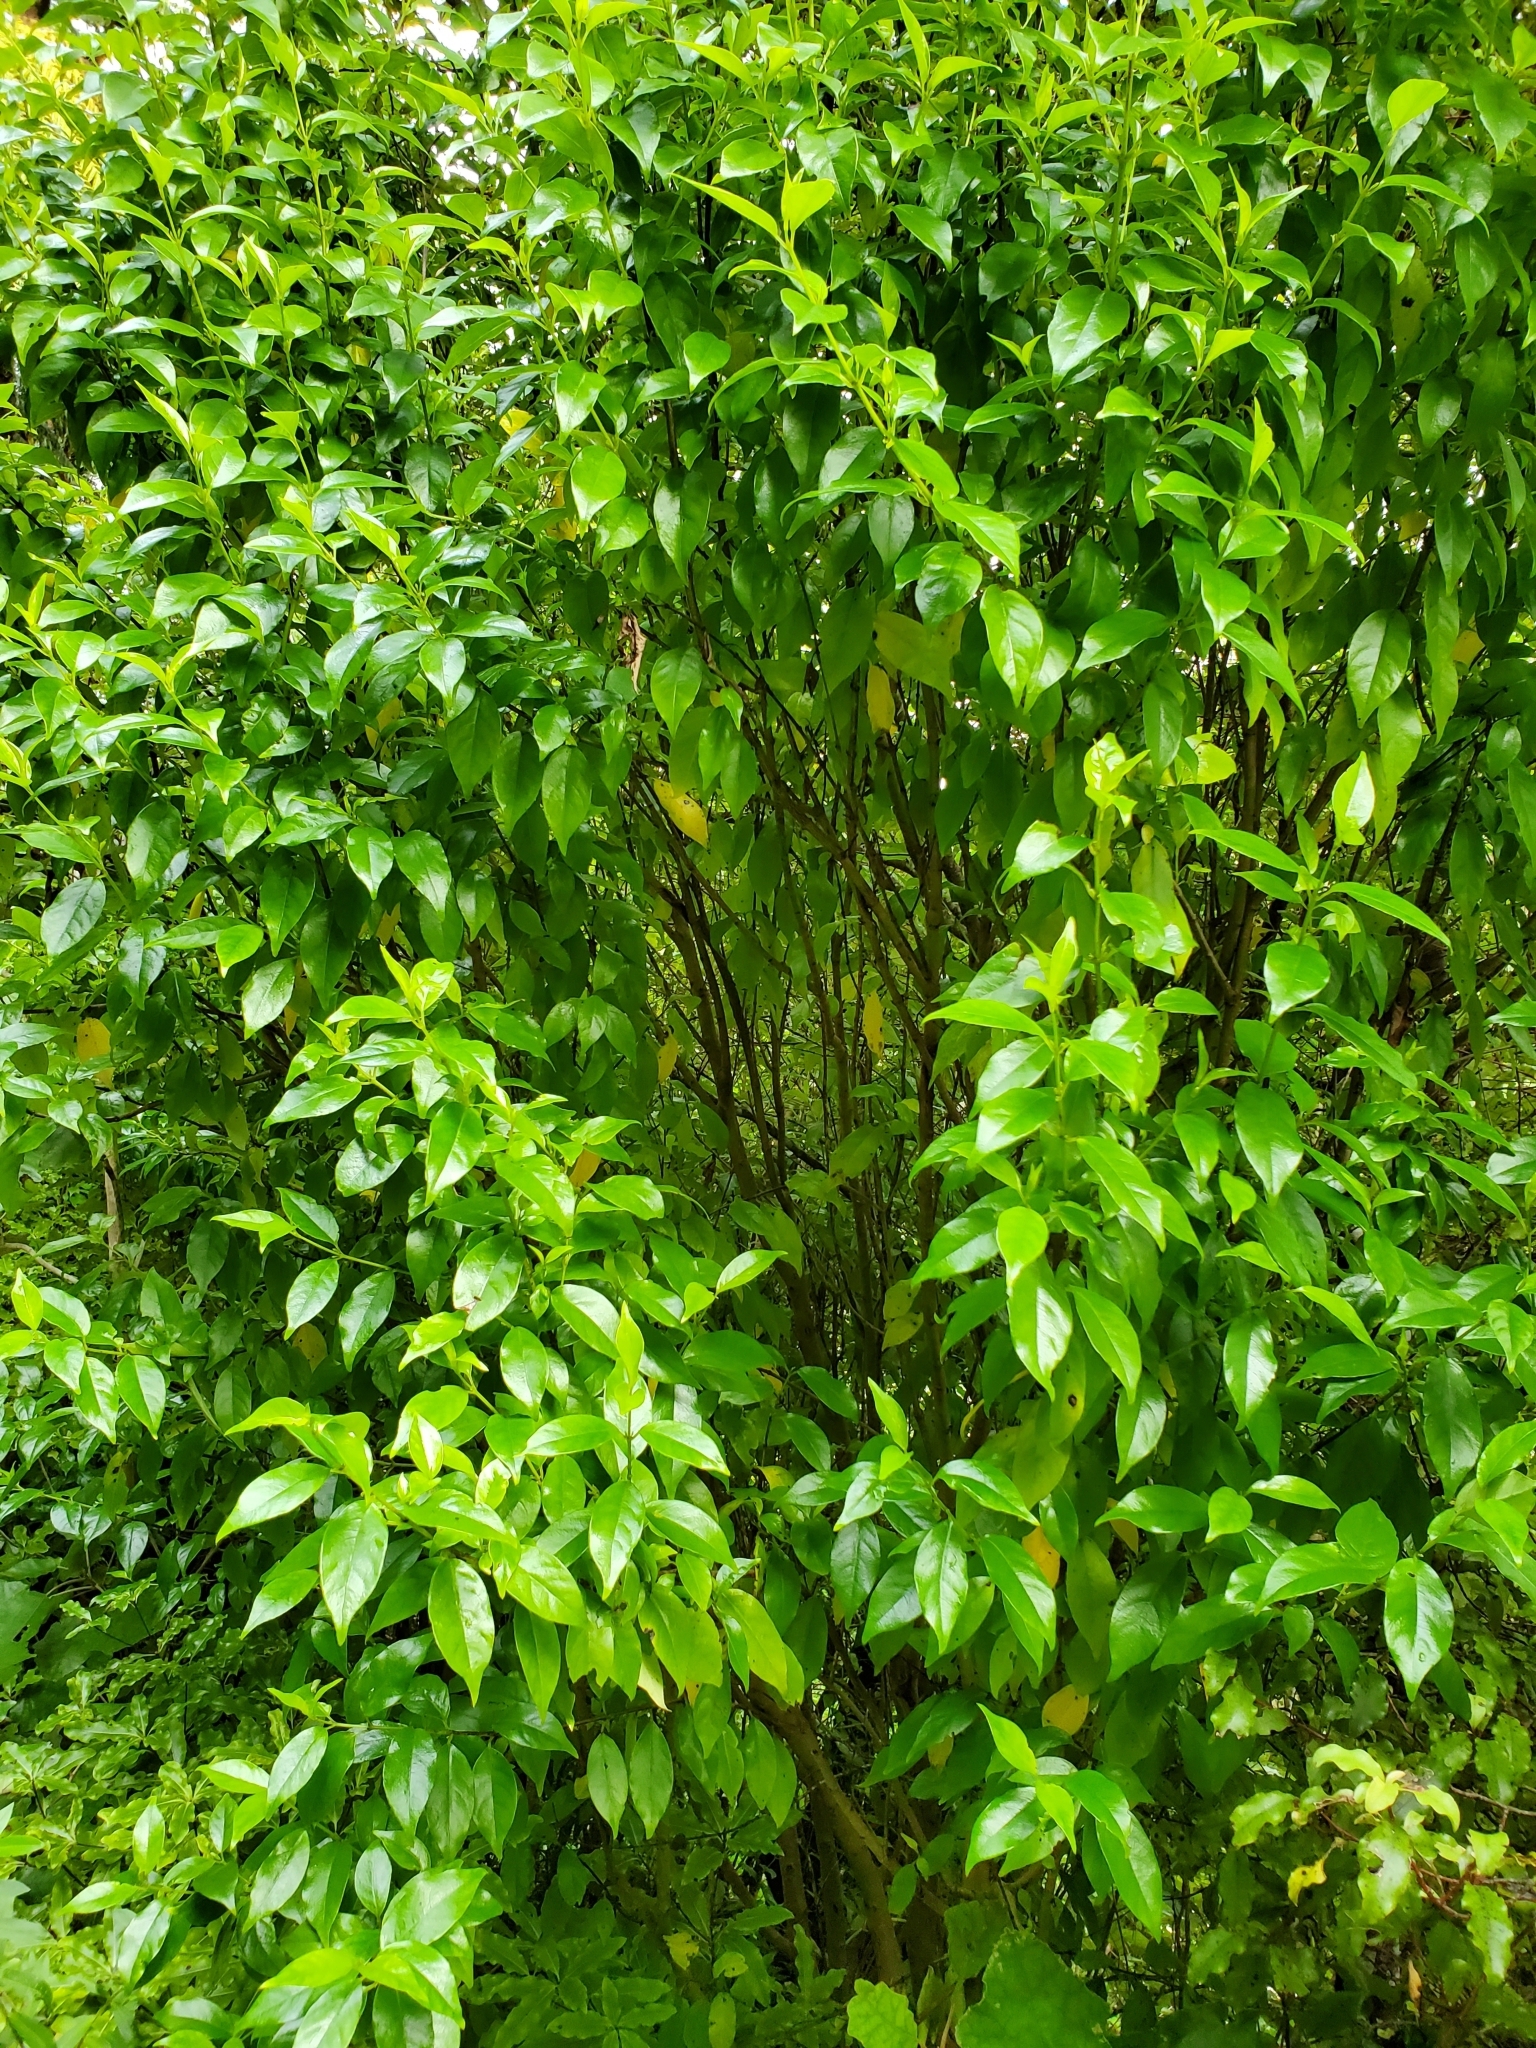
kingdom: Plantae
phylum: Tracheophyta
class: Magnoliopsida
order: Gentianales
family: Loganiaceae
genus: Geniostoma
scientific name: Geniostoma ligustrifolium
